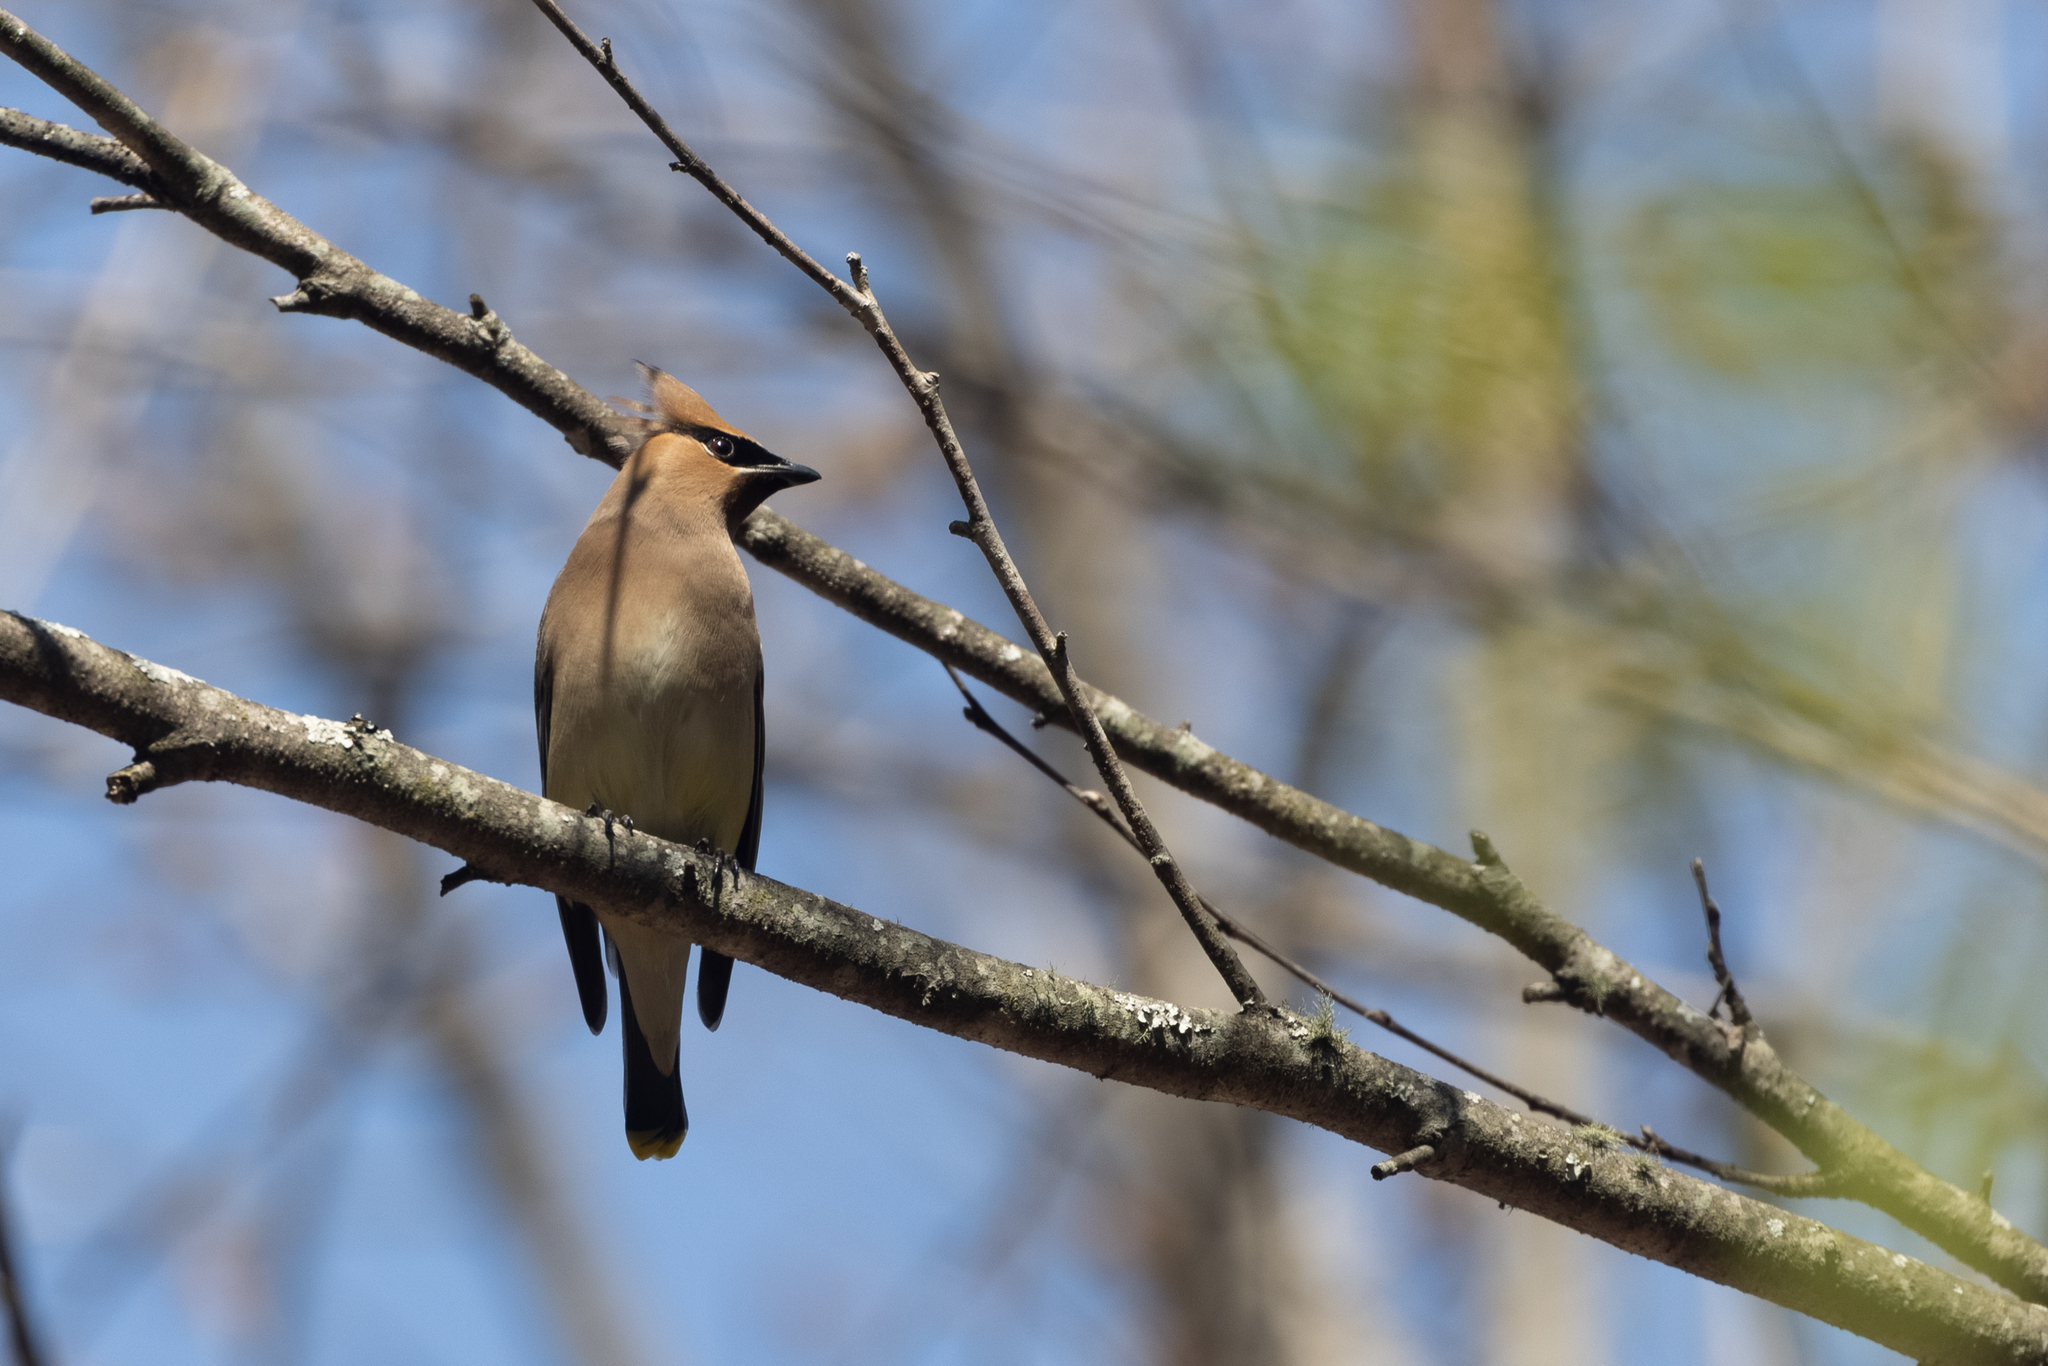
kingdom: Animalia
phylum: Chordata
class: Aves
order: Passeriformes
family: Bombycillidae
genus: Bombycilla
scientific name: Bombycilla cedrorum
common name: Cedar waxwing
